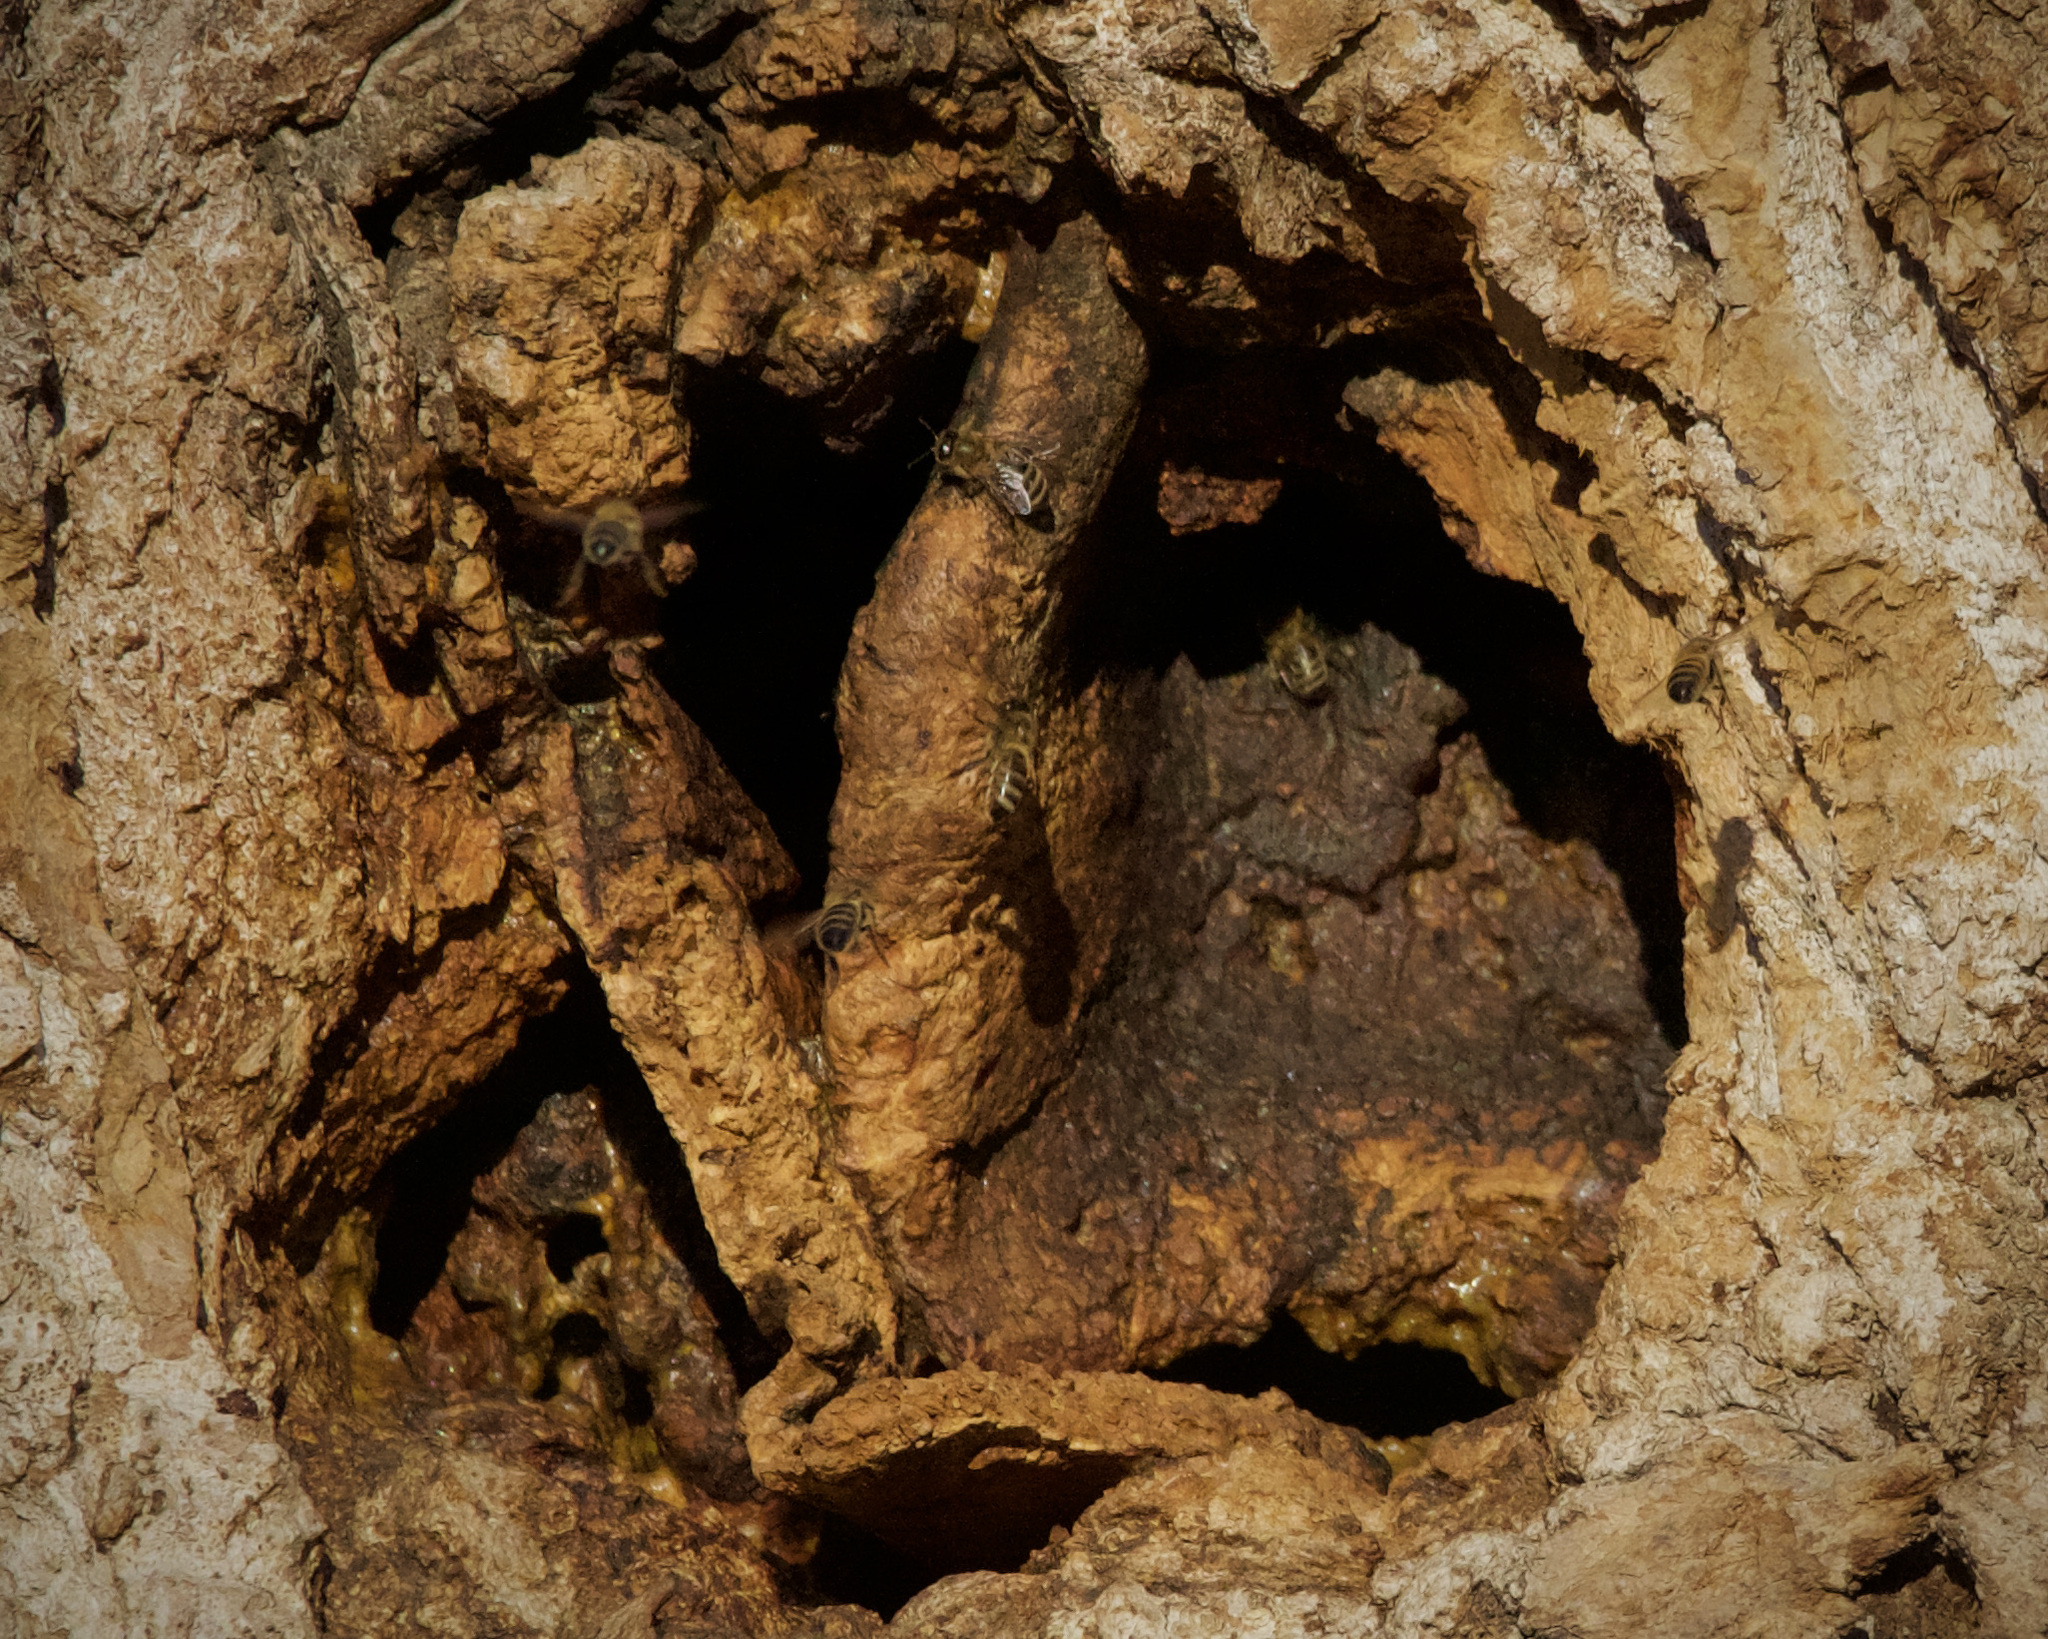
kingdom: Animalia
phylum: Arthropoda
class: Insecta
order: Hymenoptera
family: Apidae
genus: Apis
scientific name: Apis mellifera
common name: Honey bee
